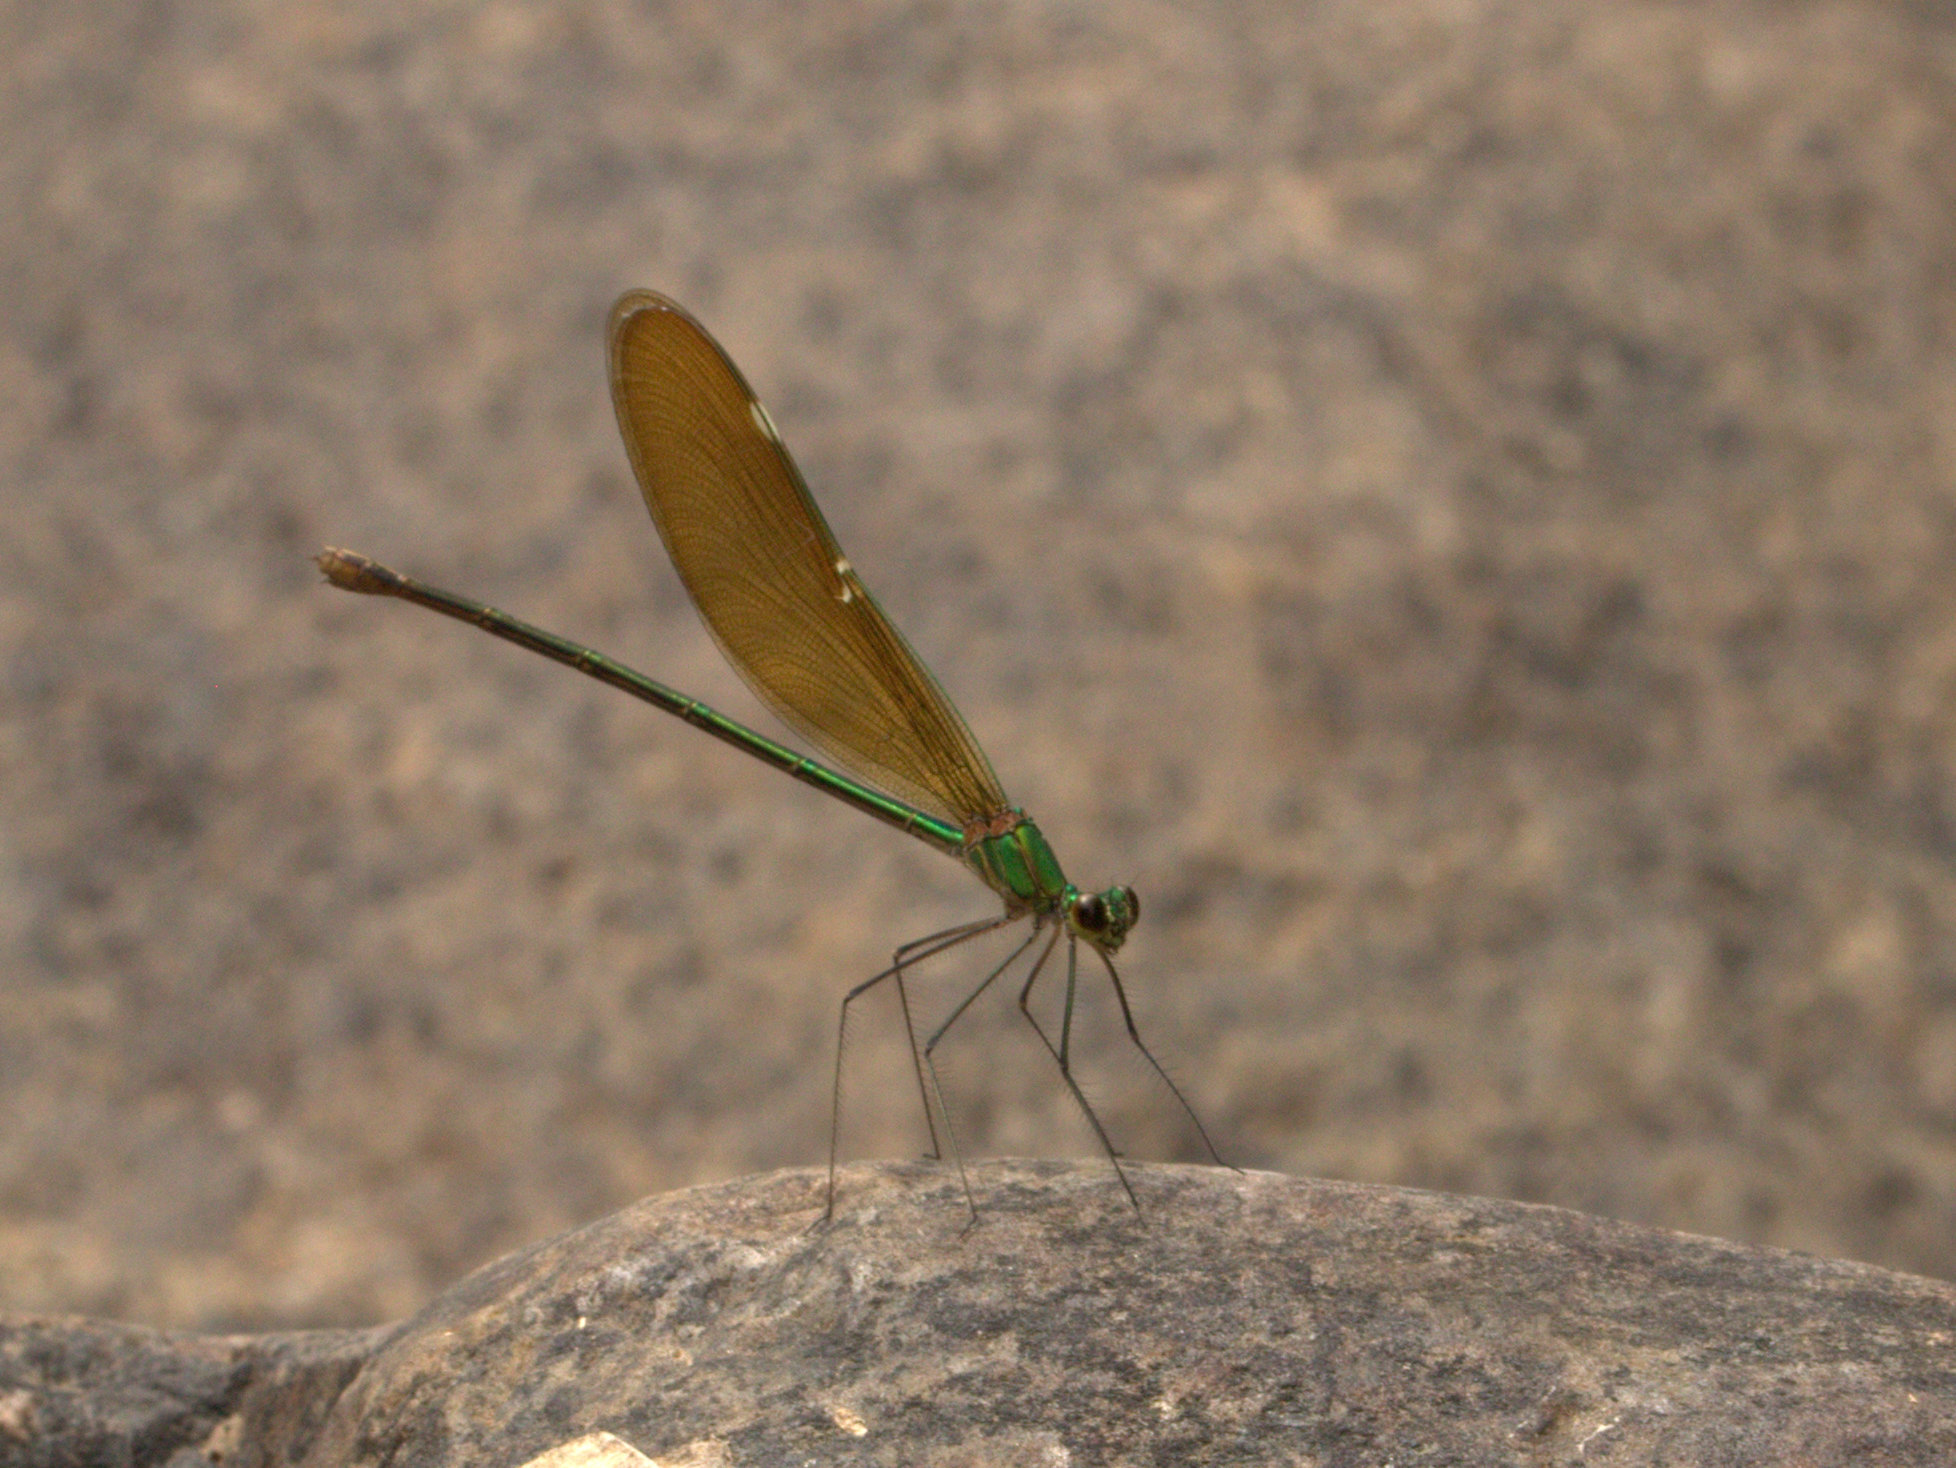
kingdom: Animalia
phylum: Arthropoda
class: Insecta
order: Odonata
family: Calopterygidae
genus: Neurobasis
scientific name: Neurobasis chinensis
